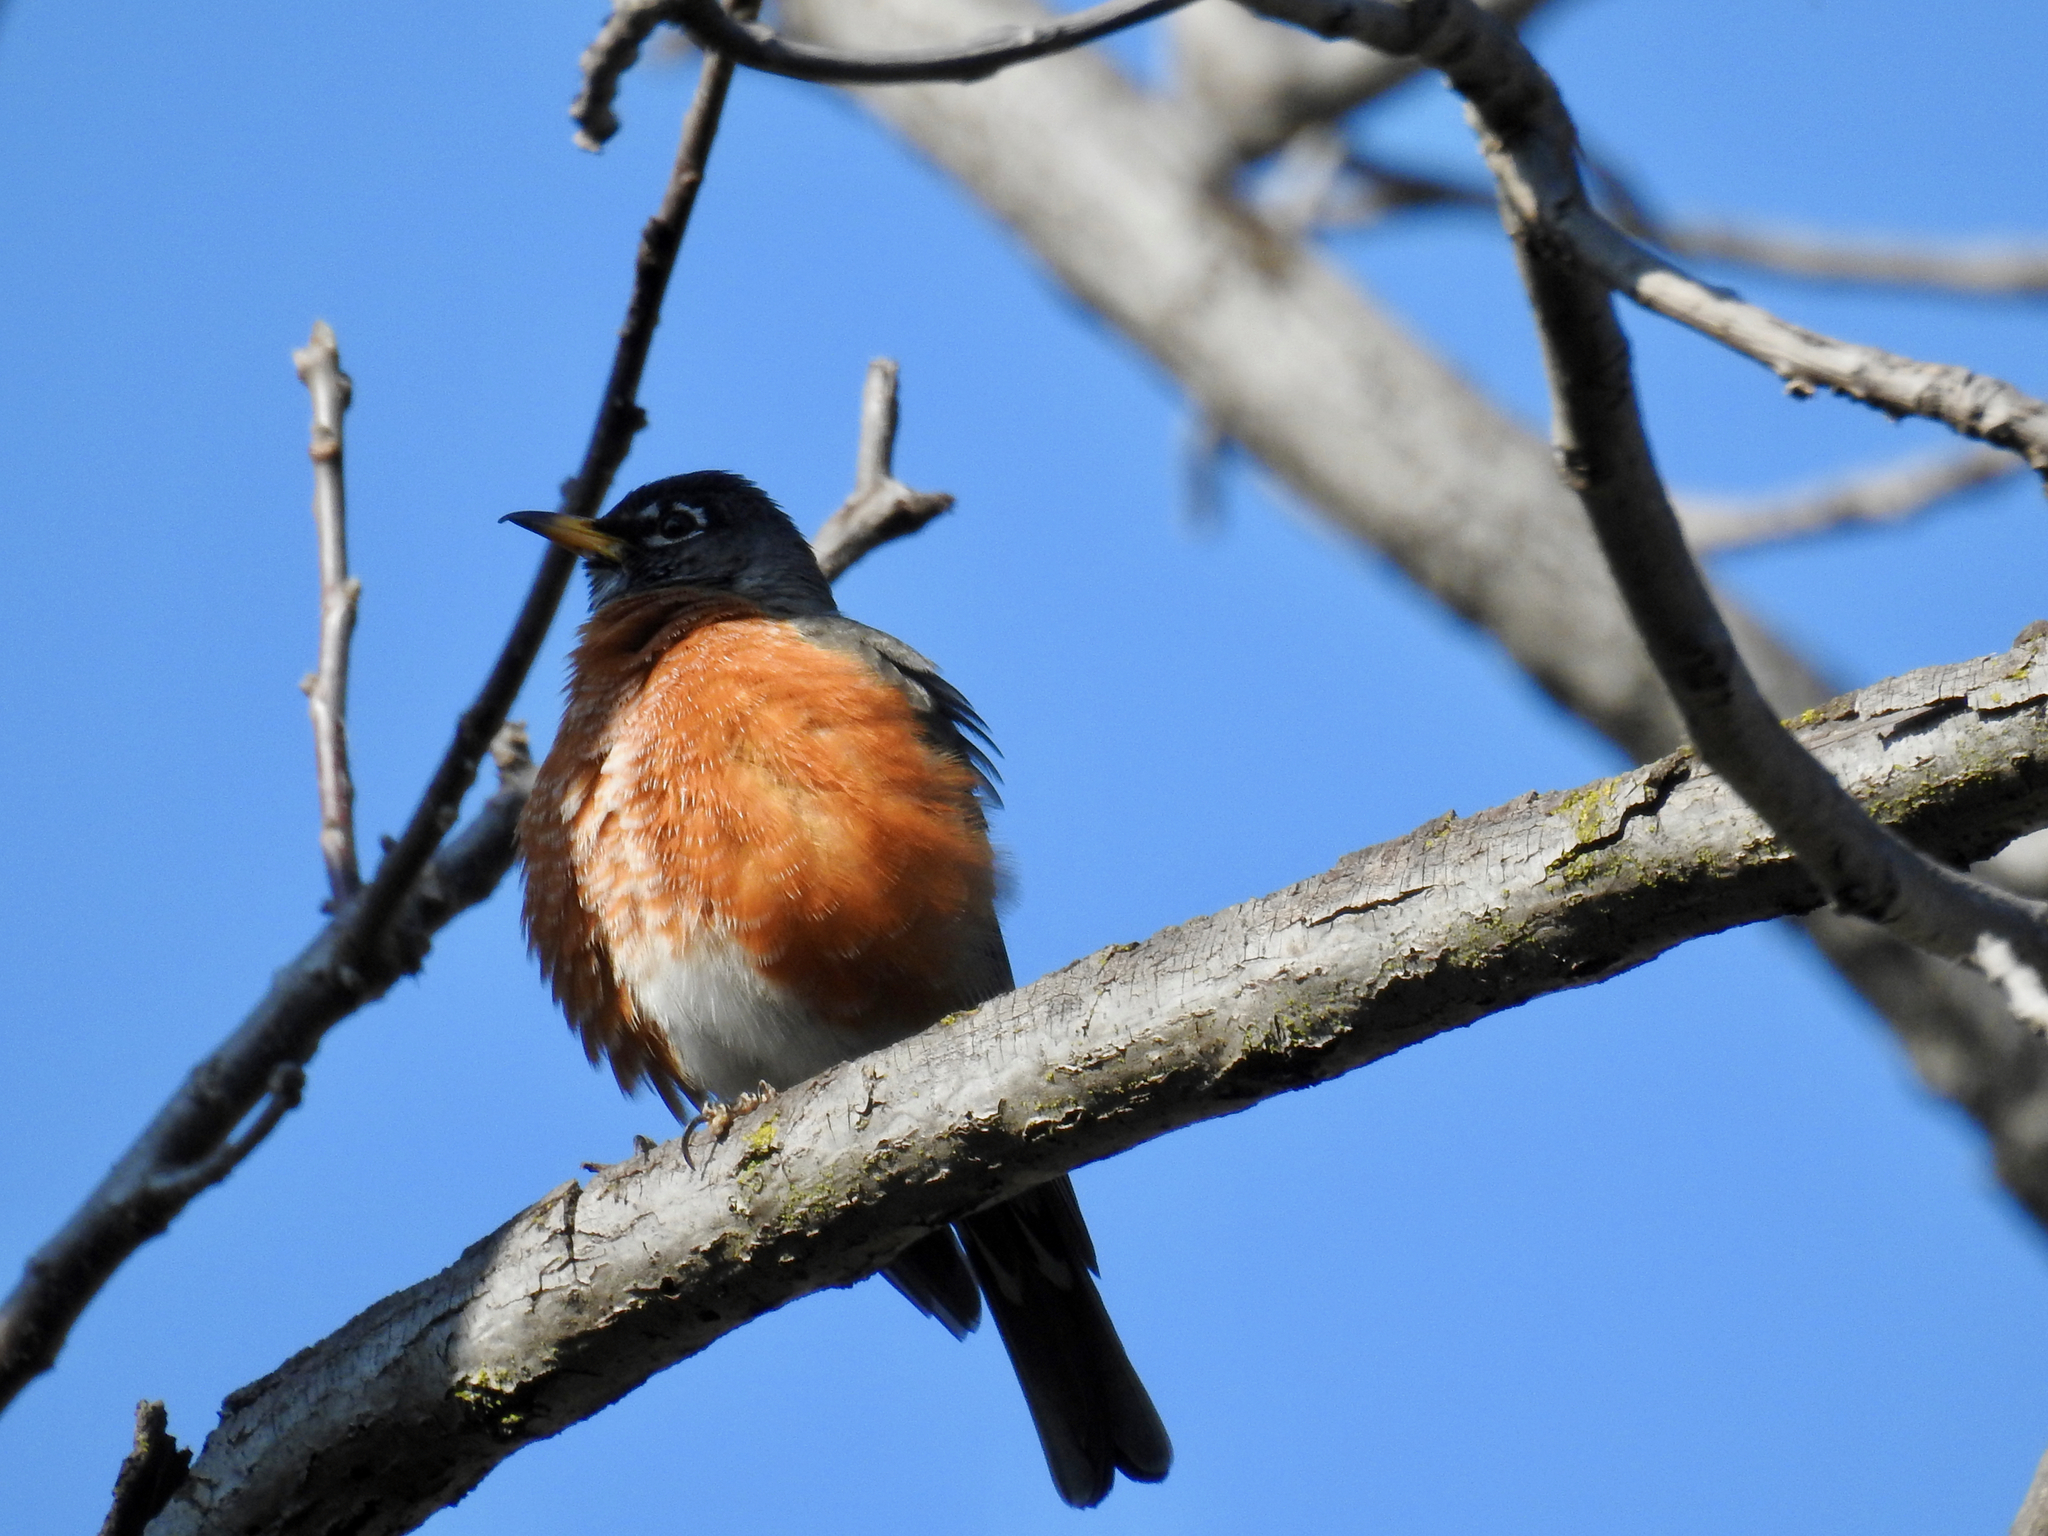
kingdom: Animalia
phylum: Chordata
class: Aves
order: Passeriformes
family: Turdidae
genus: Turdus
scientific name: Turdus migratorius
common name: American robin
